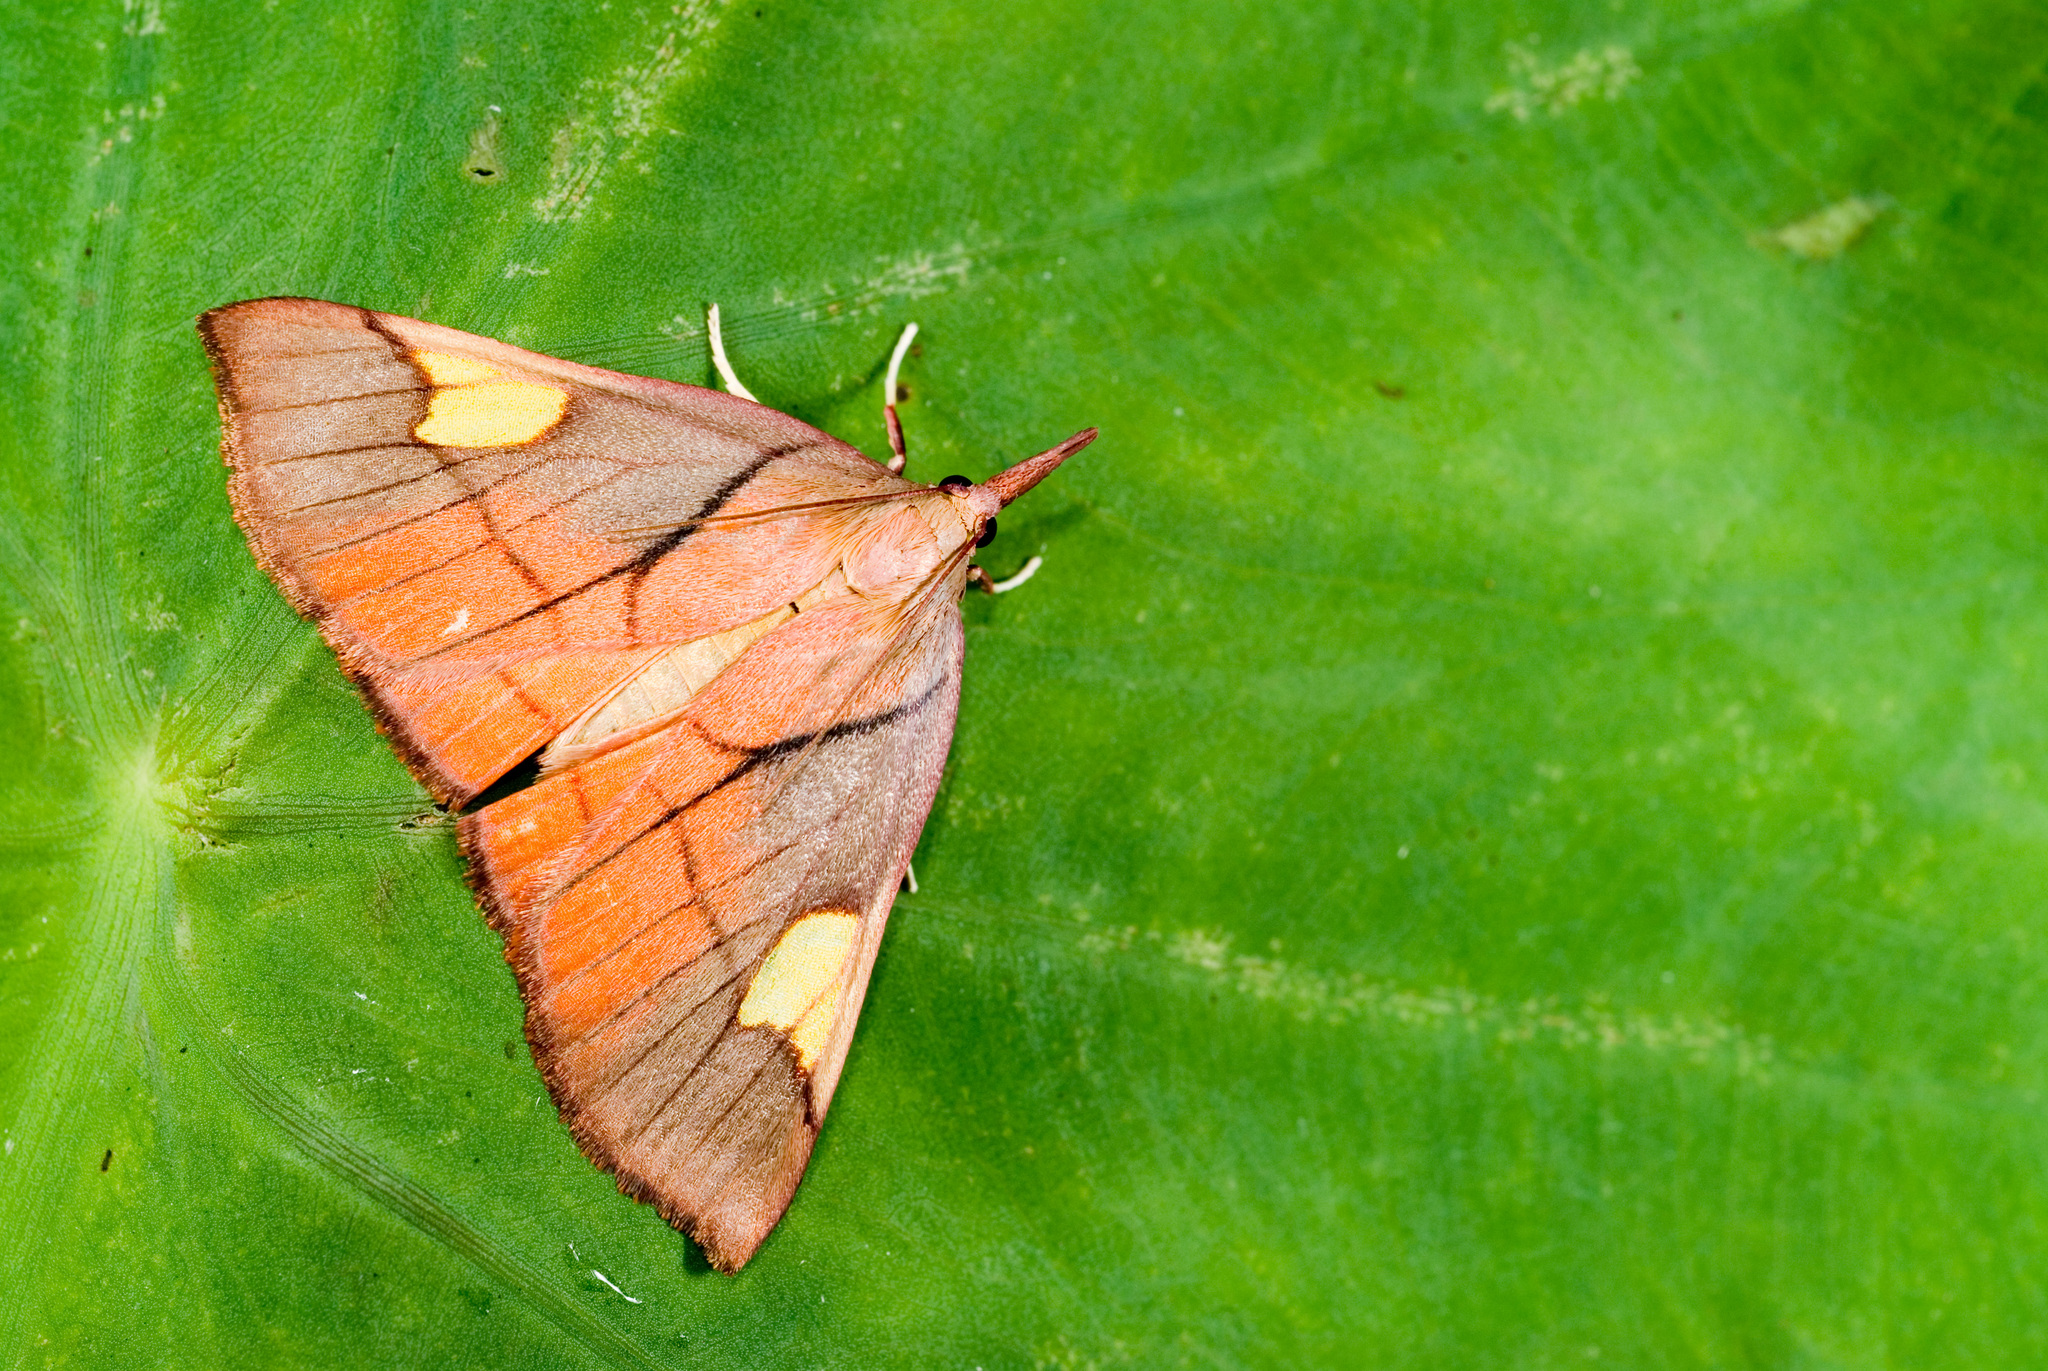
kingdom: Animalia
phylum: Arthropoda
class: Insecta
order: Lepidoptera
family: Pyralidae
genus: Orybina
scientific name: Orybina flaviplaga
